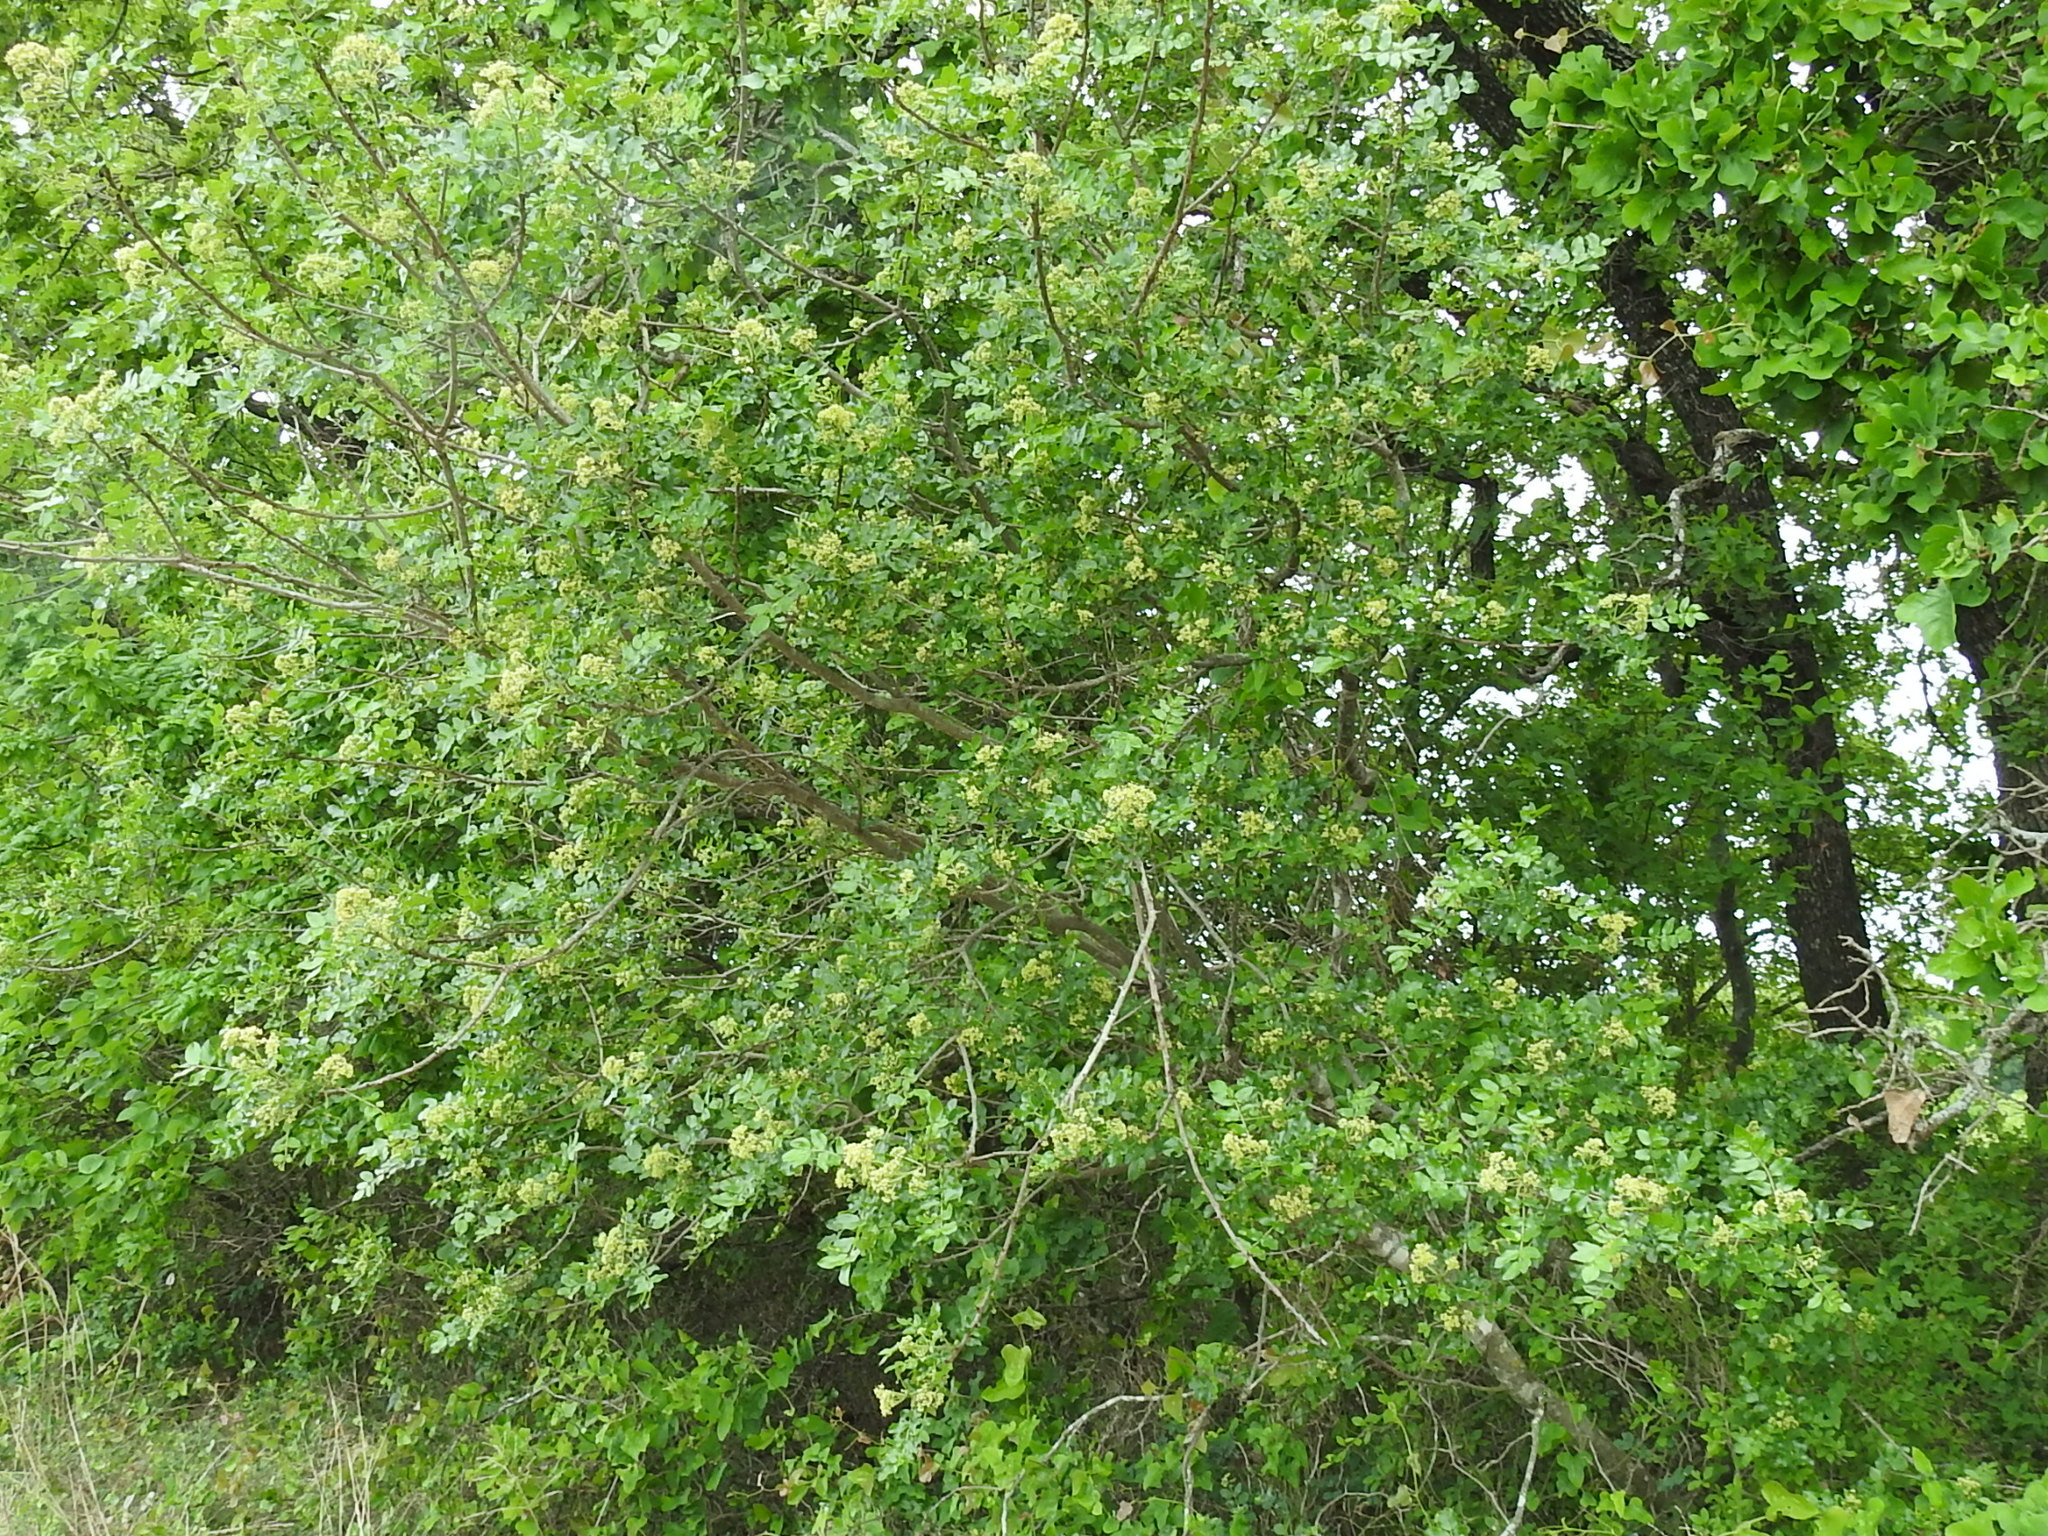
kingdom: Plantae
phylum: Tracheophyta
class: Magnoliopsida
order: Sapindales
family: Rutaceae
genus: Zanthoxylum
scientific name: Zanthoxylum clava-herculis
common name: Hercules'-club
